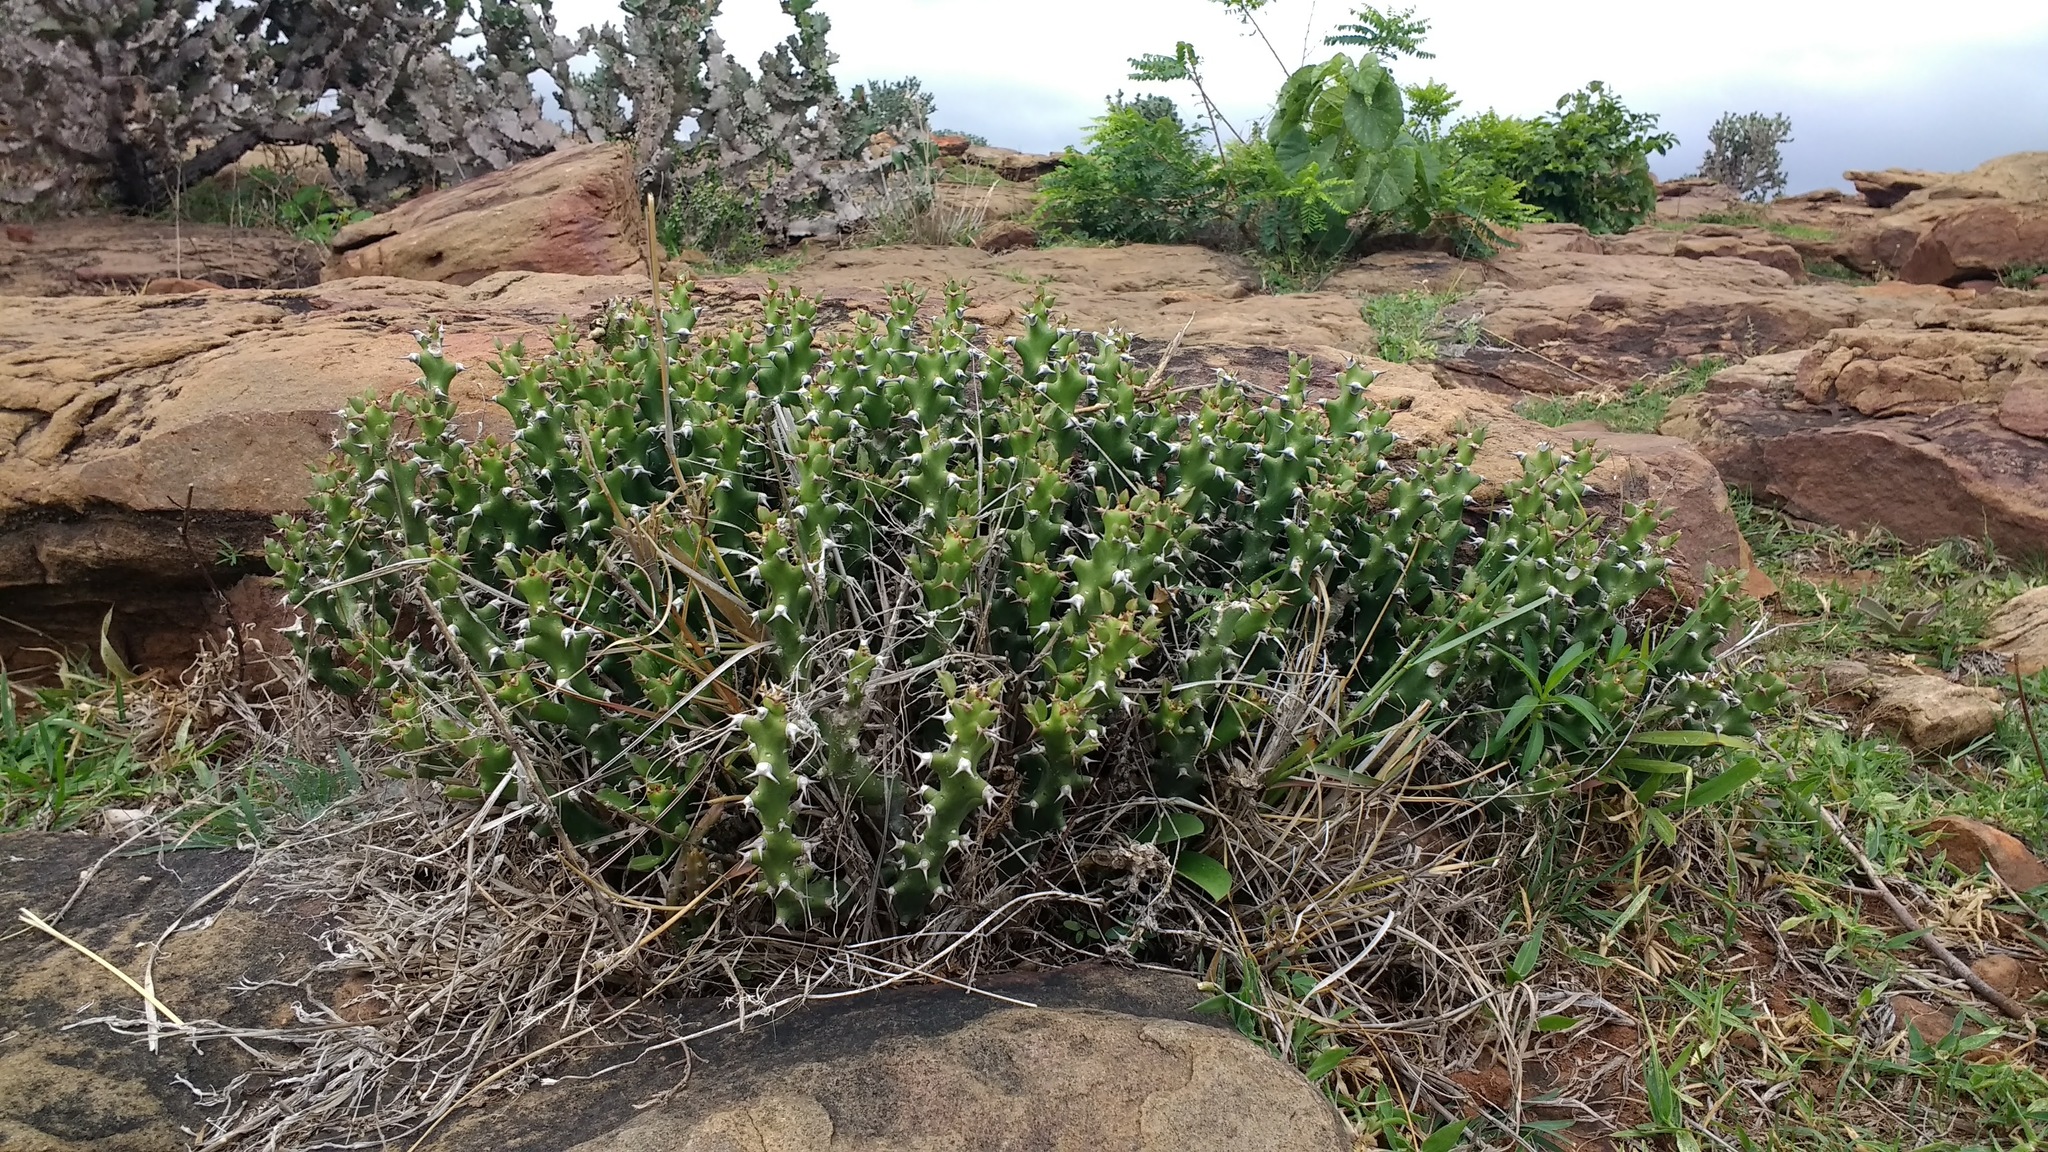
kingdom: Plantae
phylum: Tracheophyta
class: Magnoliopsida
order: Malpighiales
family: Euphorbiaceae
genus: Euphorbia
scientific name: Euphorbia gokakensis
